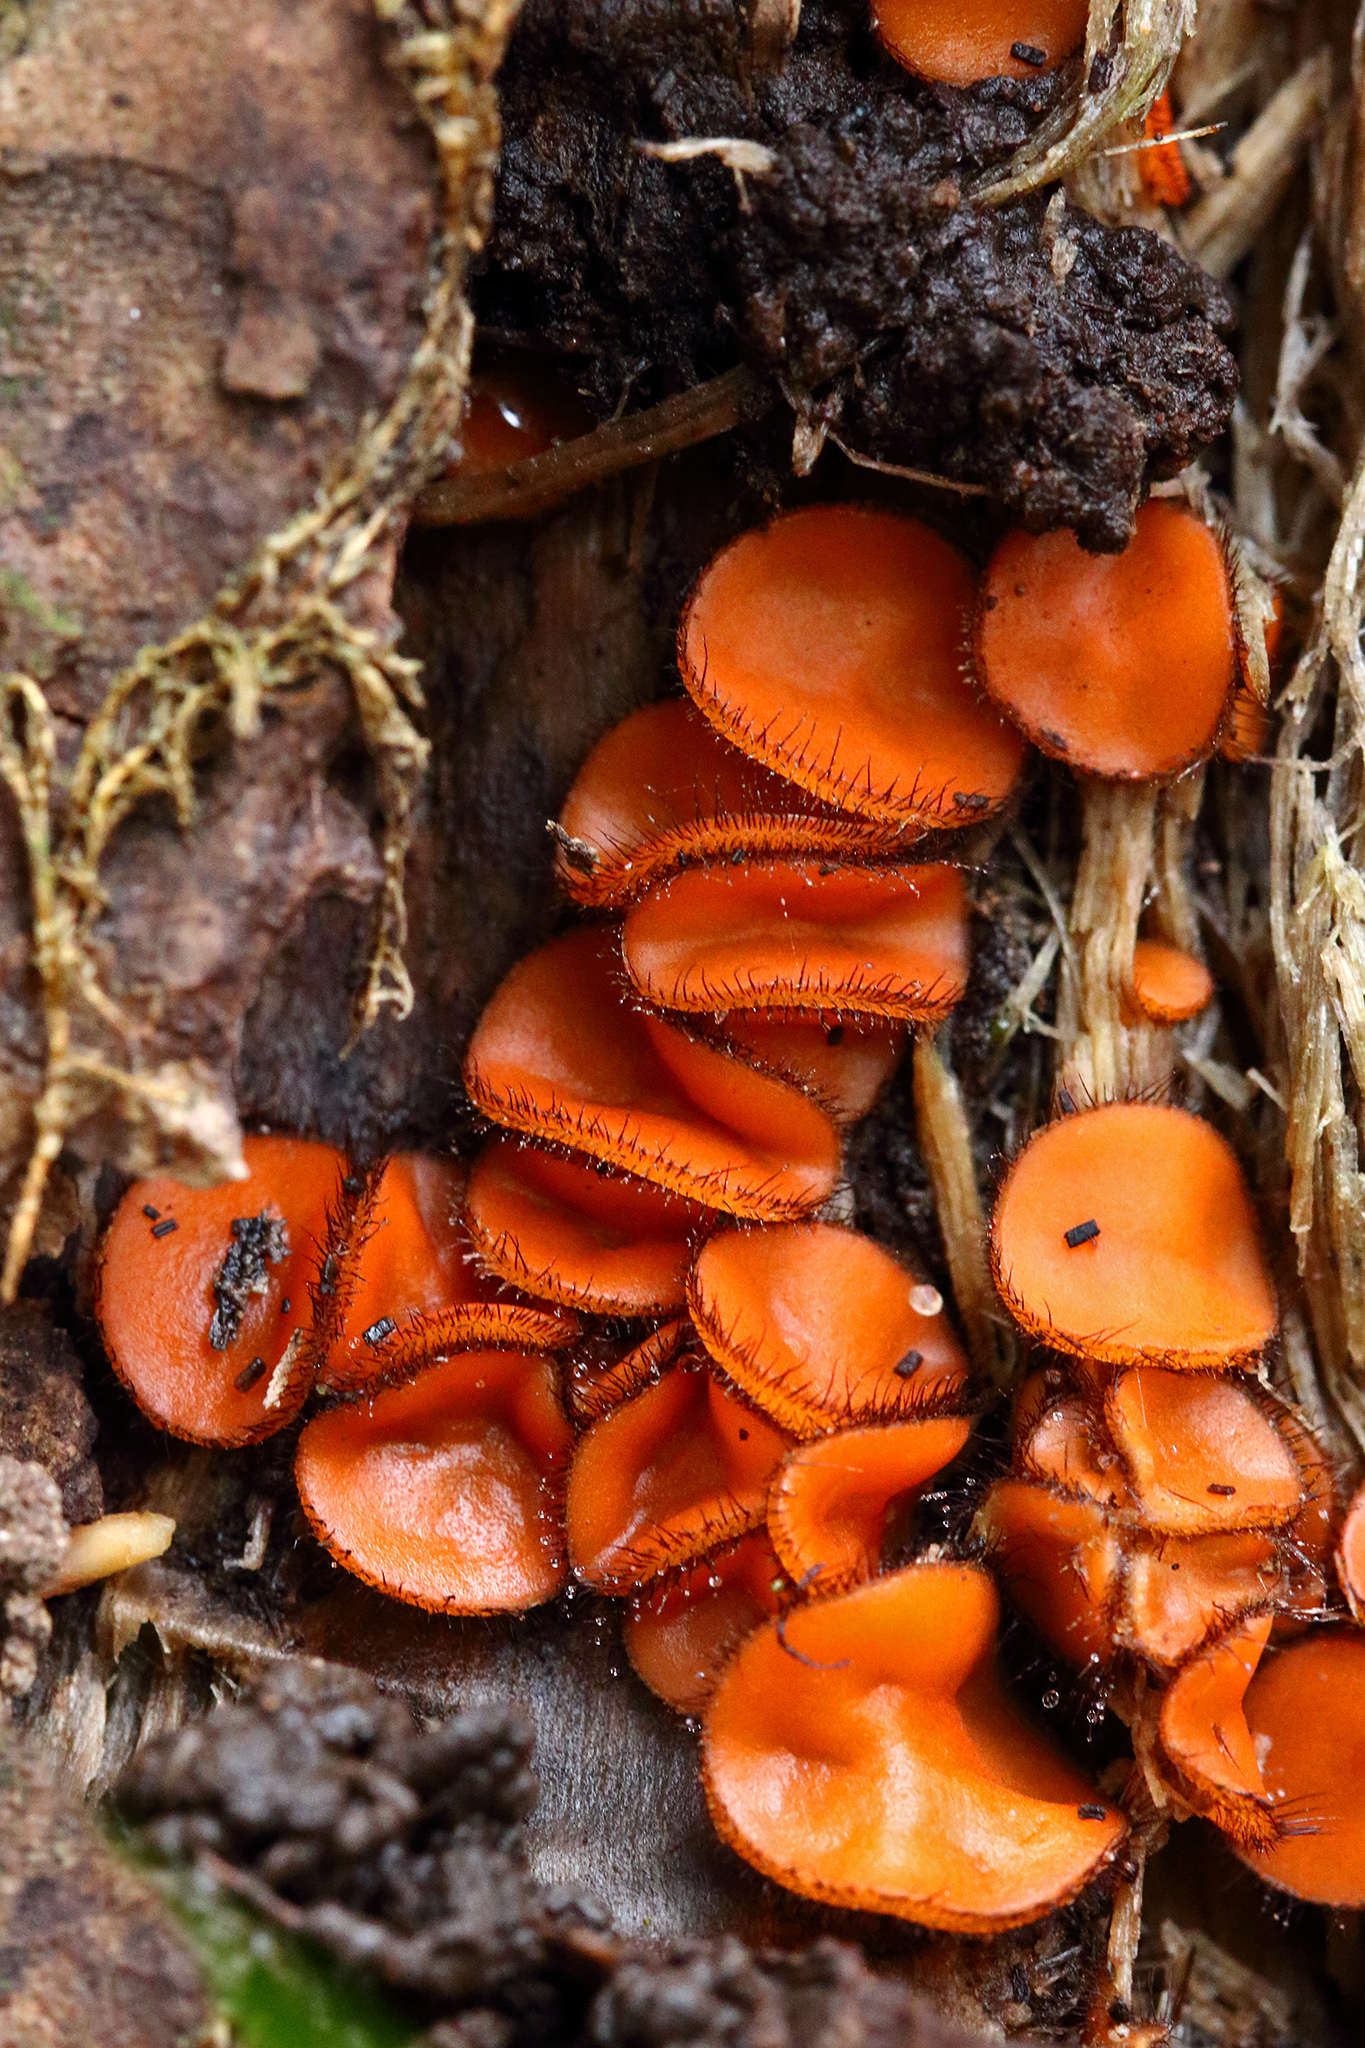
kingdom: Fungi
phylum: Ascomycota
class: Pezizomycetes
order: Pezizales
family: Pyronemataceae
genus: Scutellinia
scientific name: Scutellinia scutellata
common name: Common eyelash
